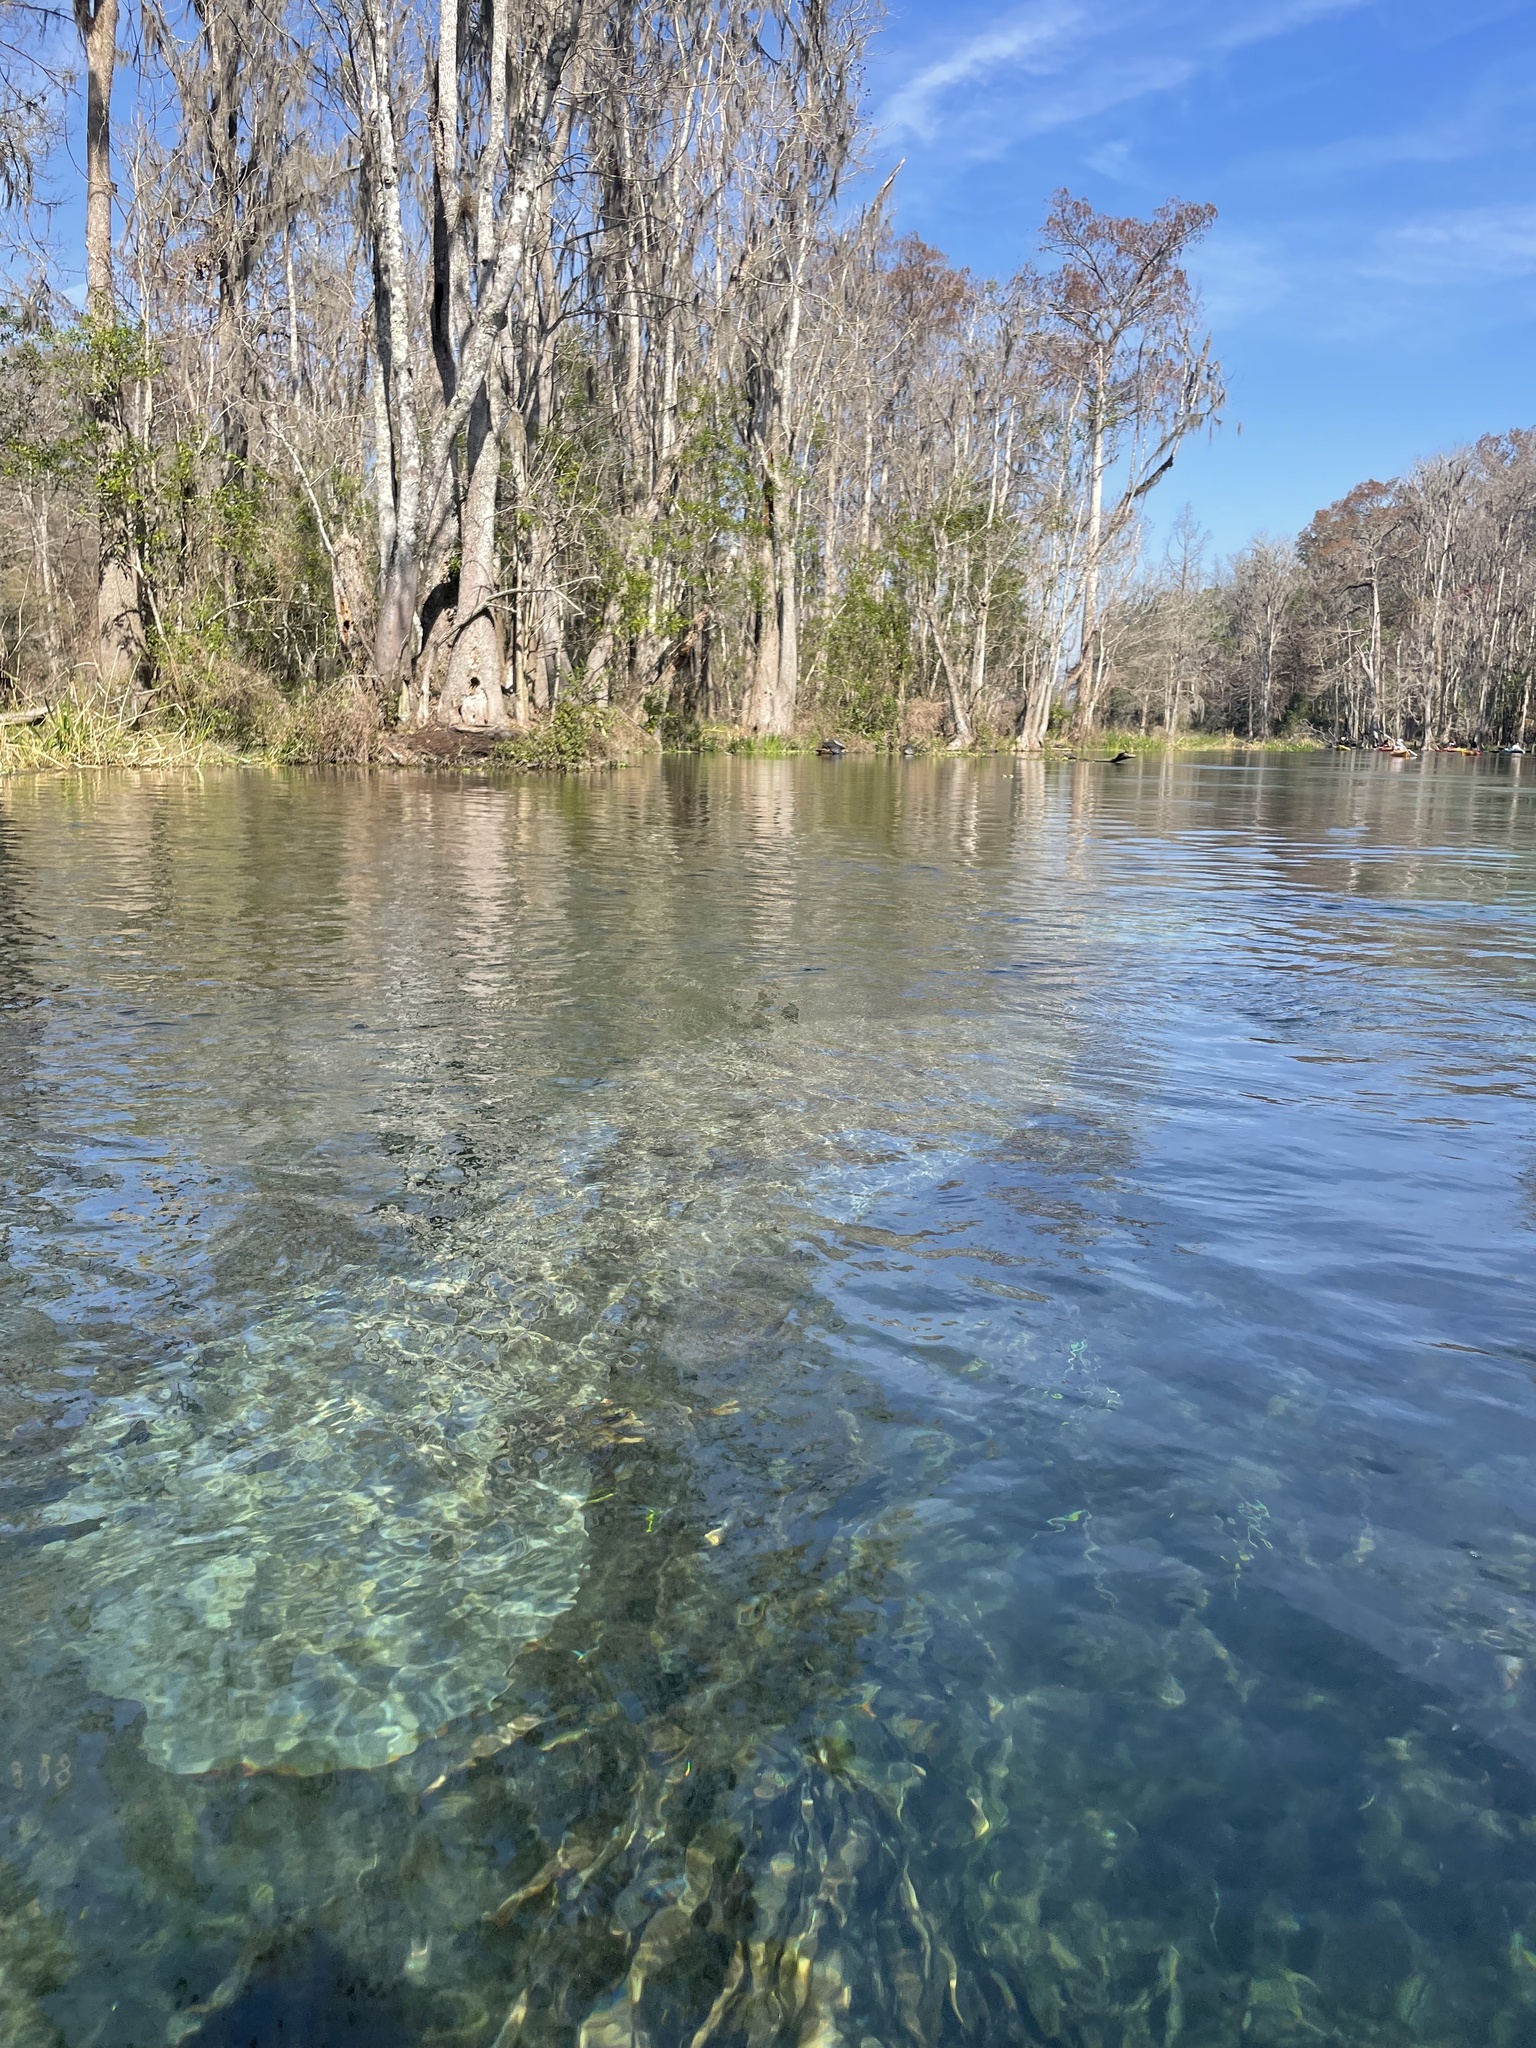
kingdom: Animalia
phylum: Chordata
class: Mammalia
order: Sirenia
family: Trichechidae
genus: Trichechus
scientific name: Trichechus manatus
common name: West indian manatee
